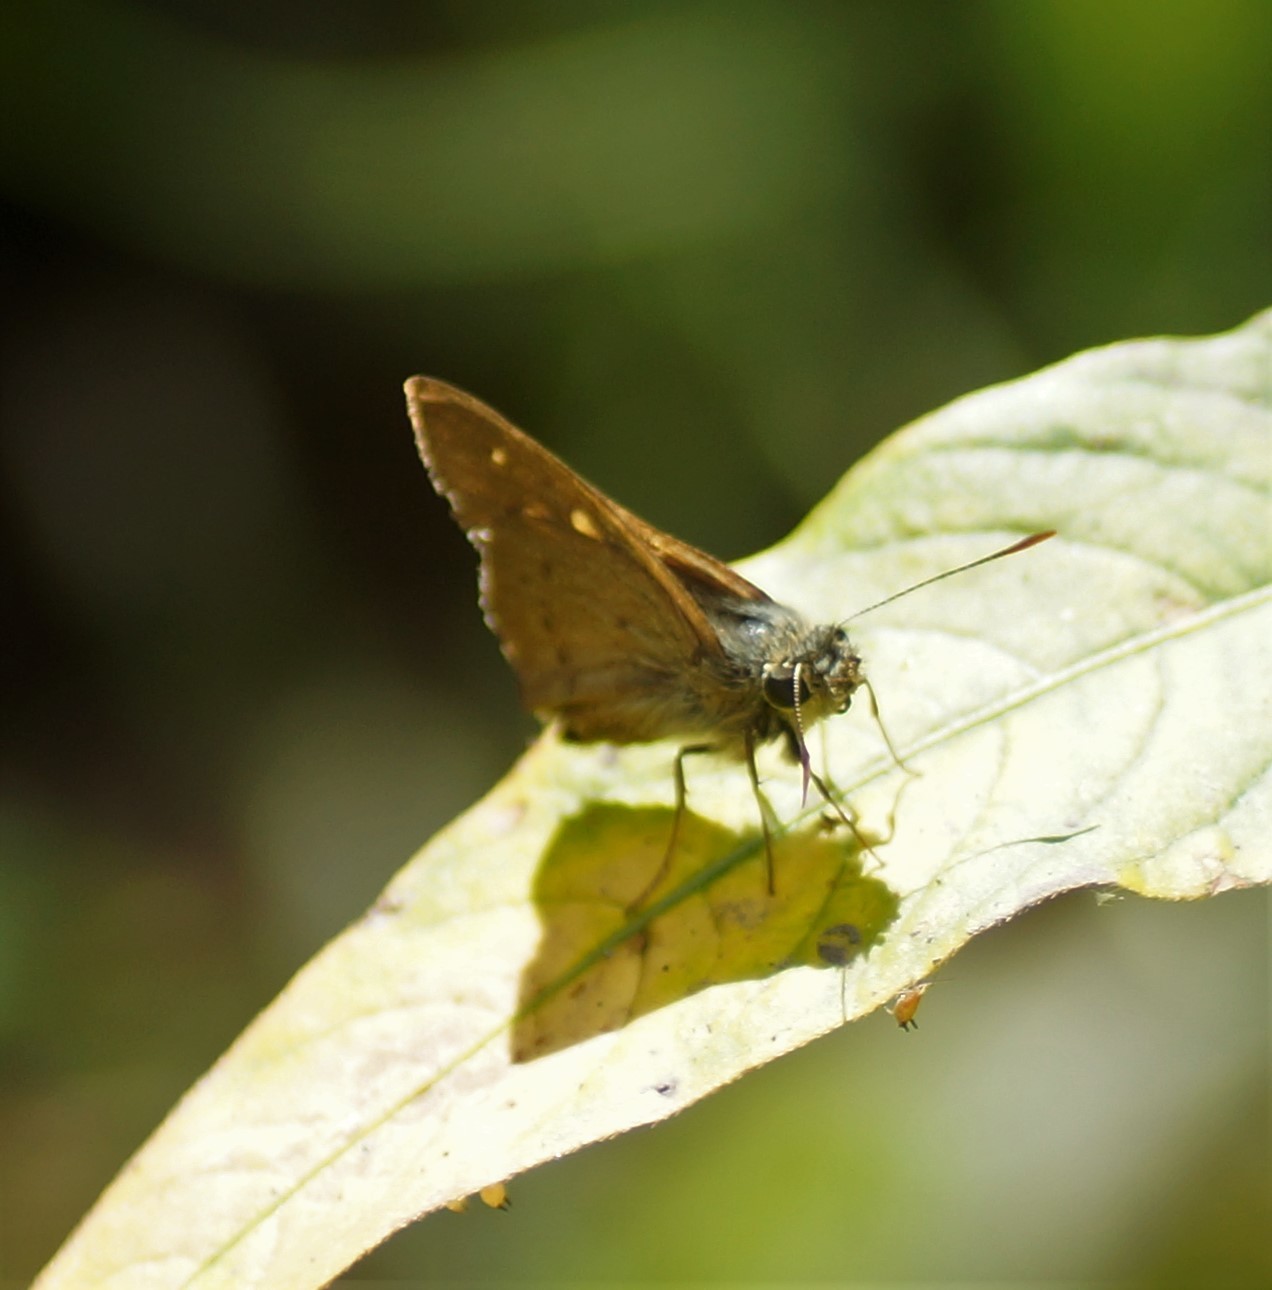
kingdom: Animalia
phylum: Arthropoda
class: Insecta
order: Lepidoptera
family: Hesperiidae
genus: Toxidia
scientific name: Toxidia
